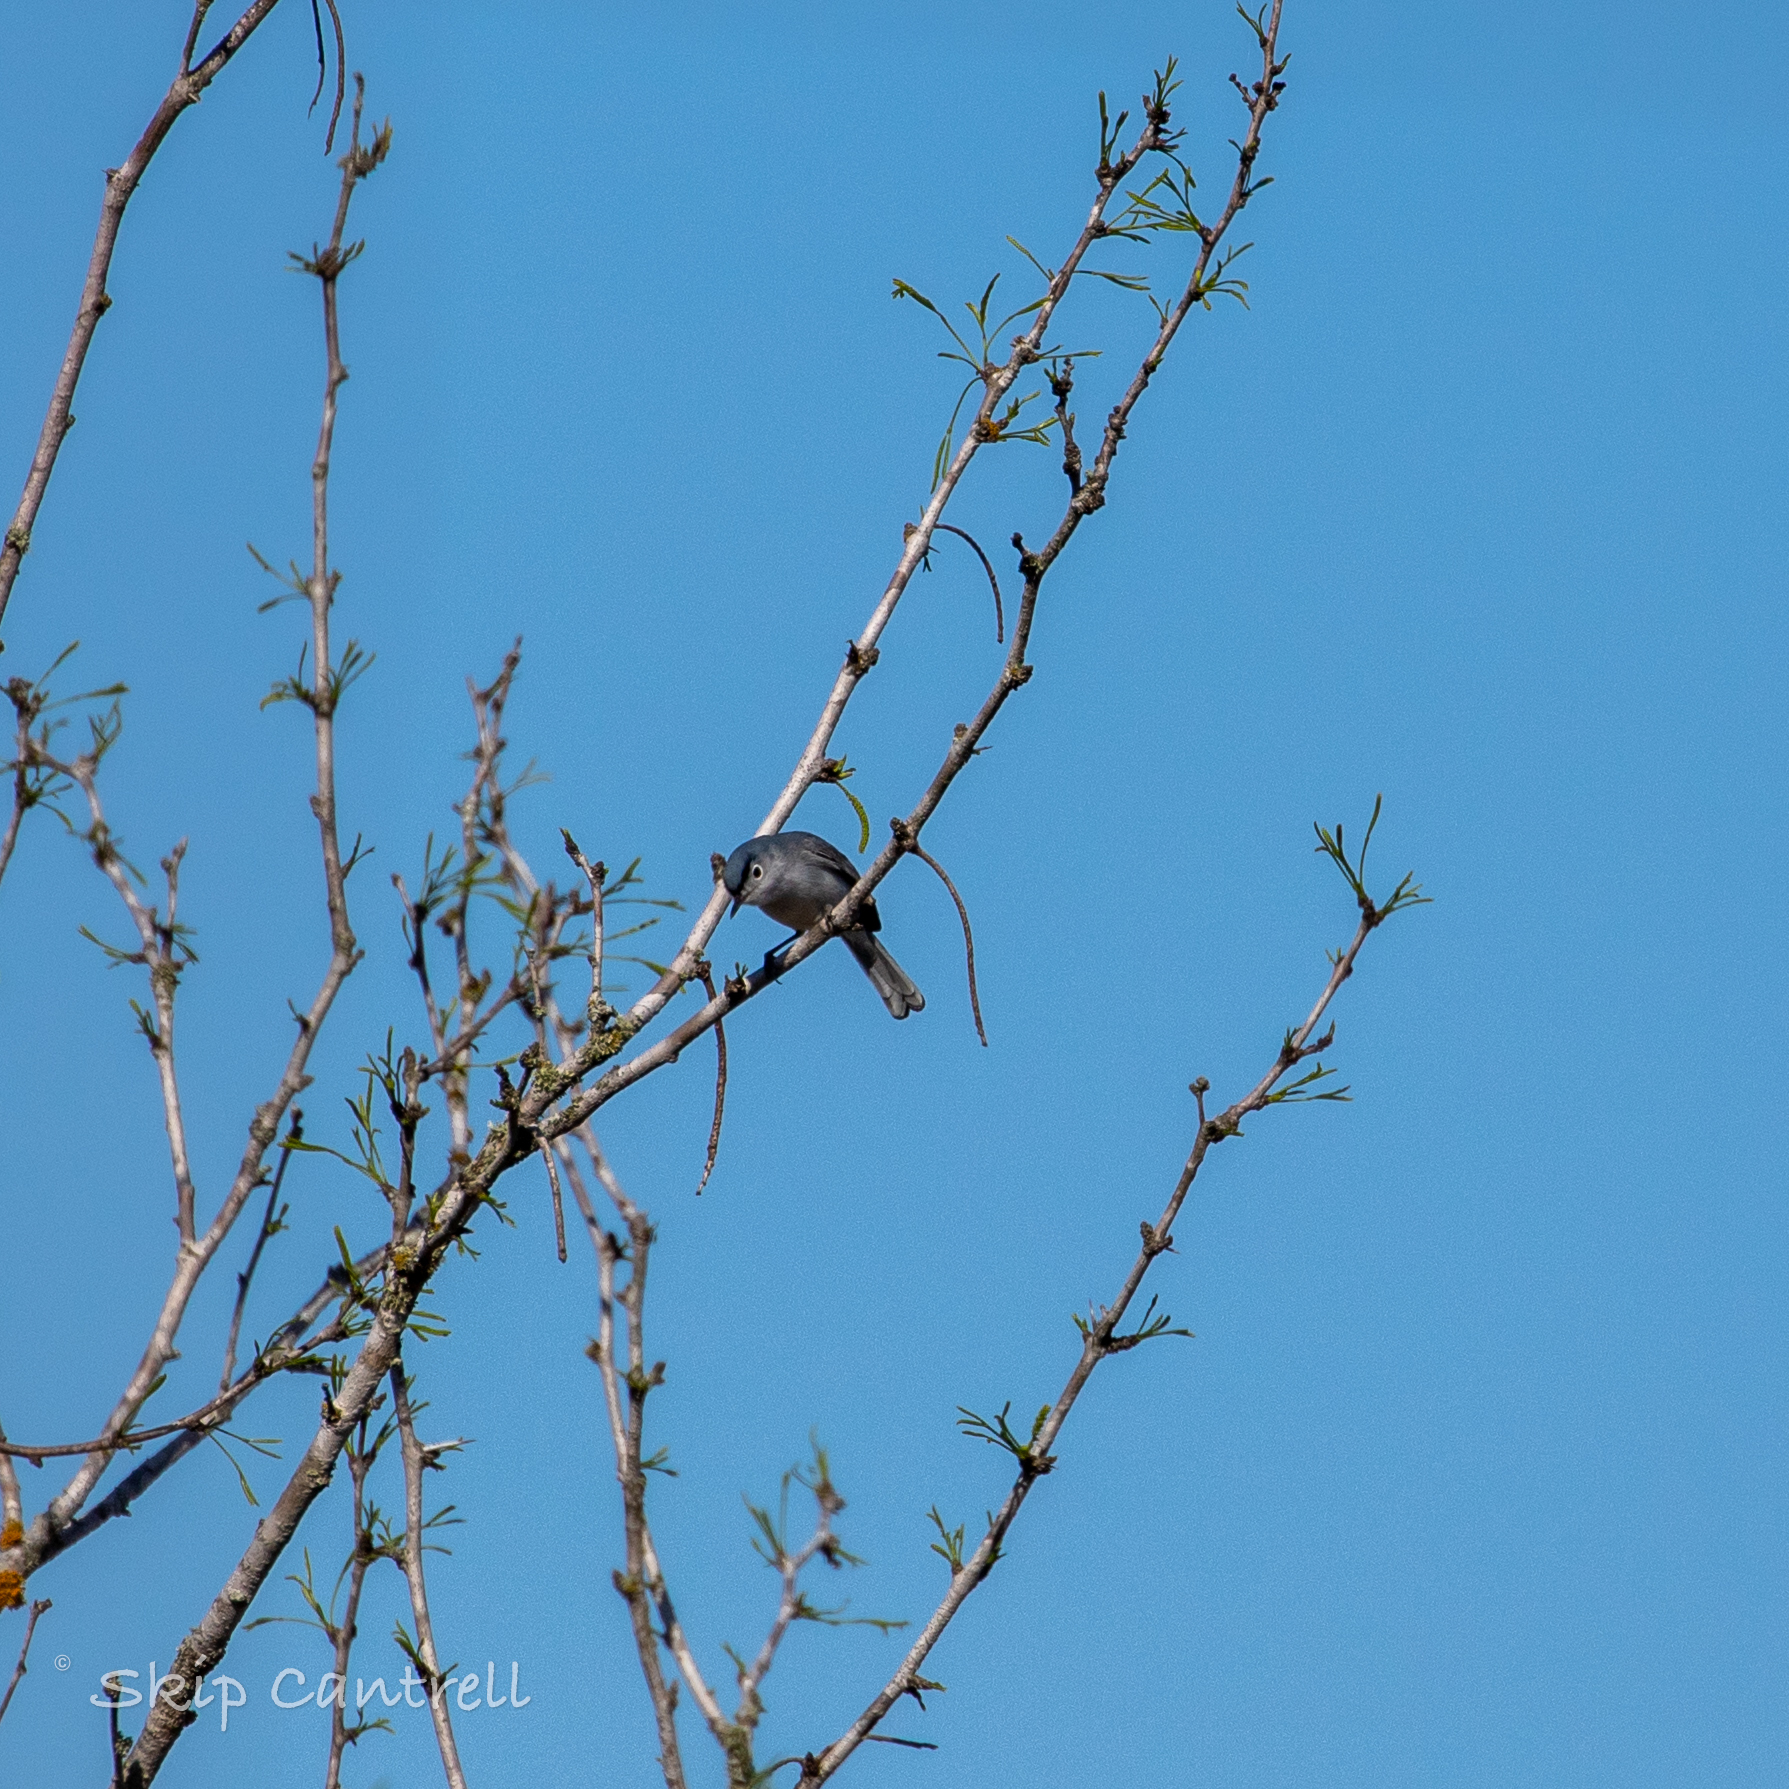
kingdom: Animalia
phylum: Chordata
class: Aves
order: Passeriformes
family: Polioptilidae
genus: Polioptila
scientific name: Polioptila caerulea
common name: Blue-gray gnatcatcher
